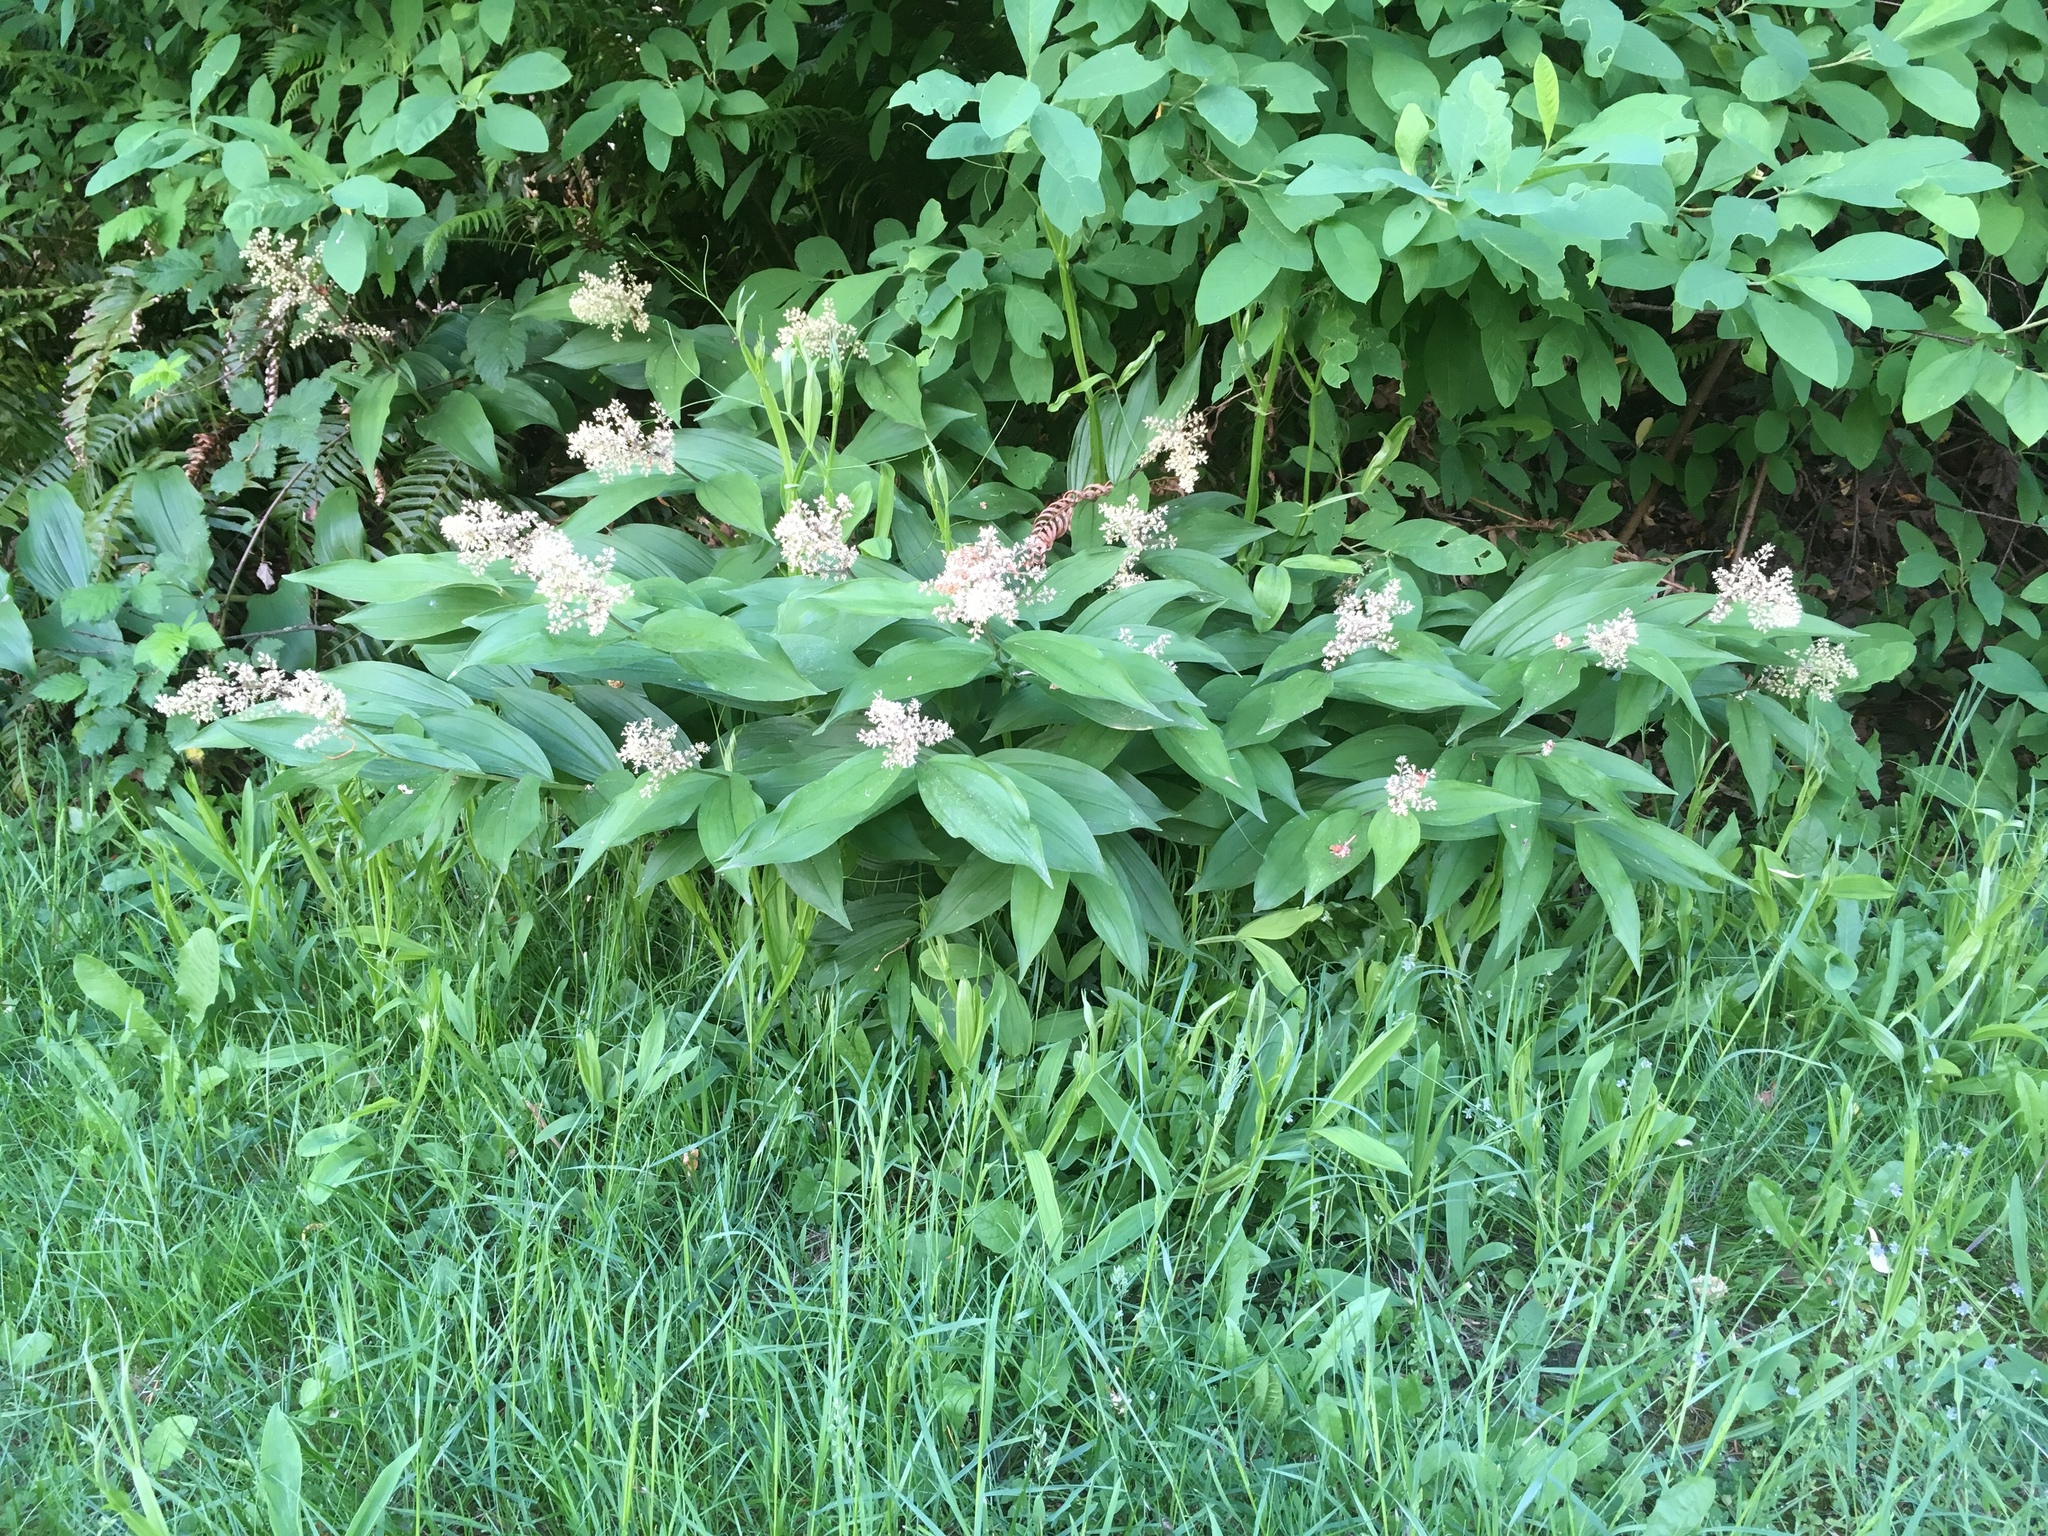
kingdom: Plantae
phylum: Tracheophyta
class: Liliopsida
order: Asparagales
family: Asparagaceae
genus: Maianthemum
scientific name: Maianthemum racemosum
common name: False spikenard
